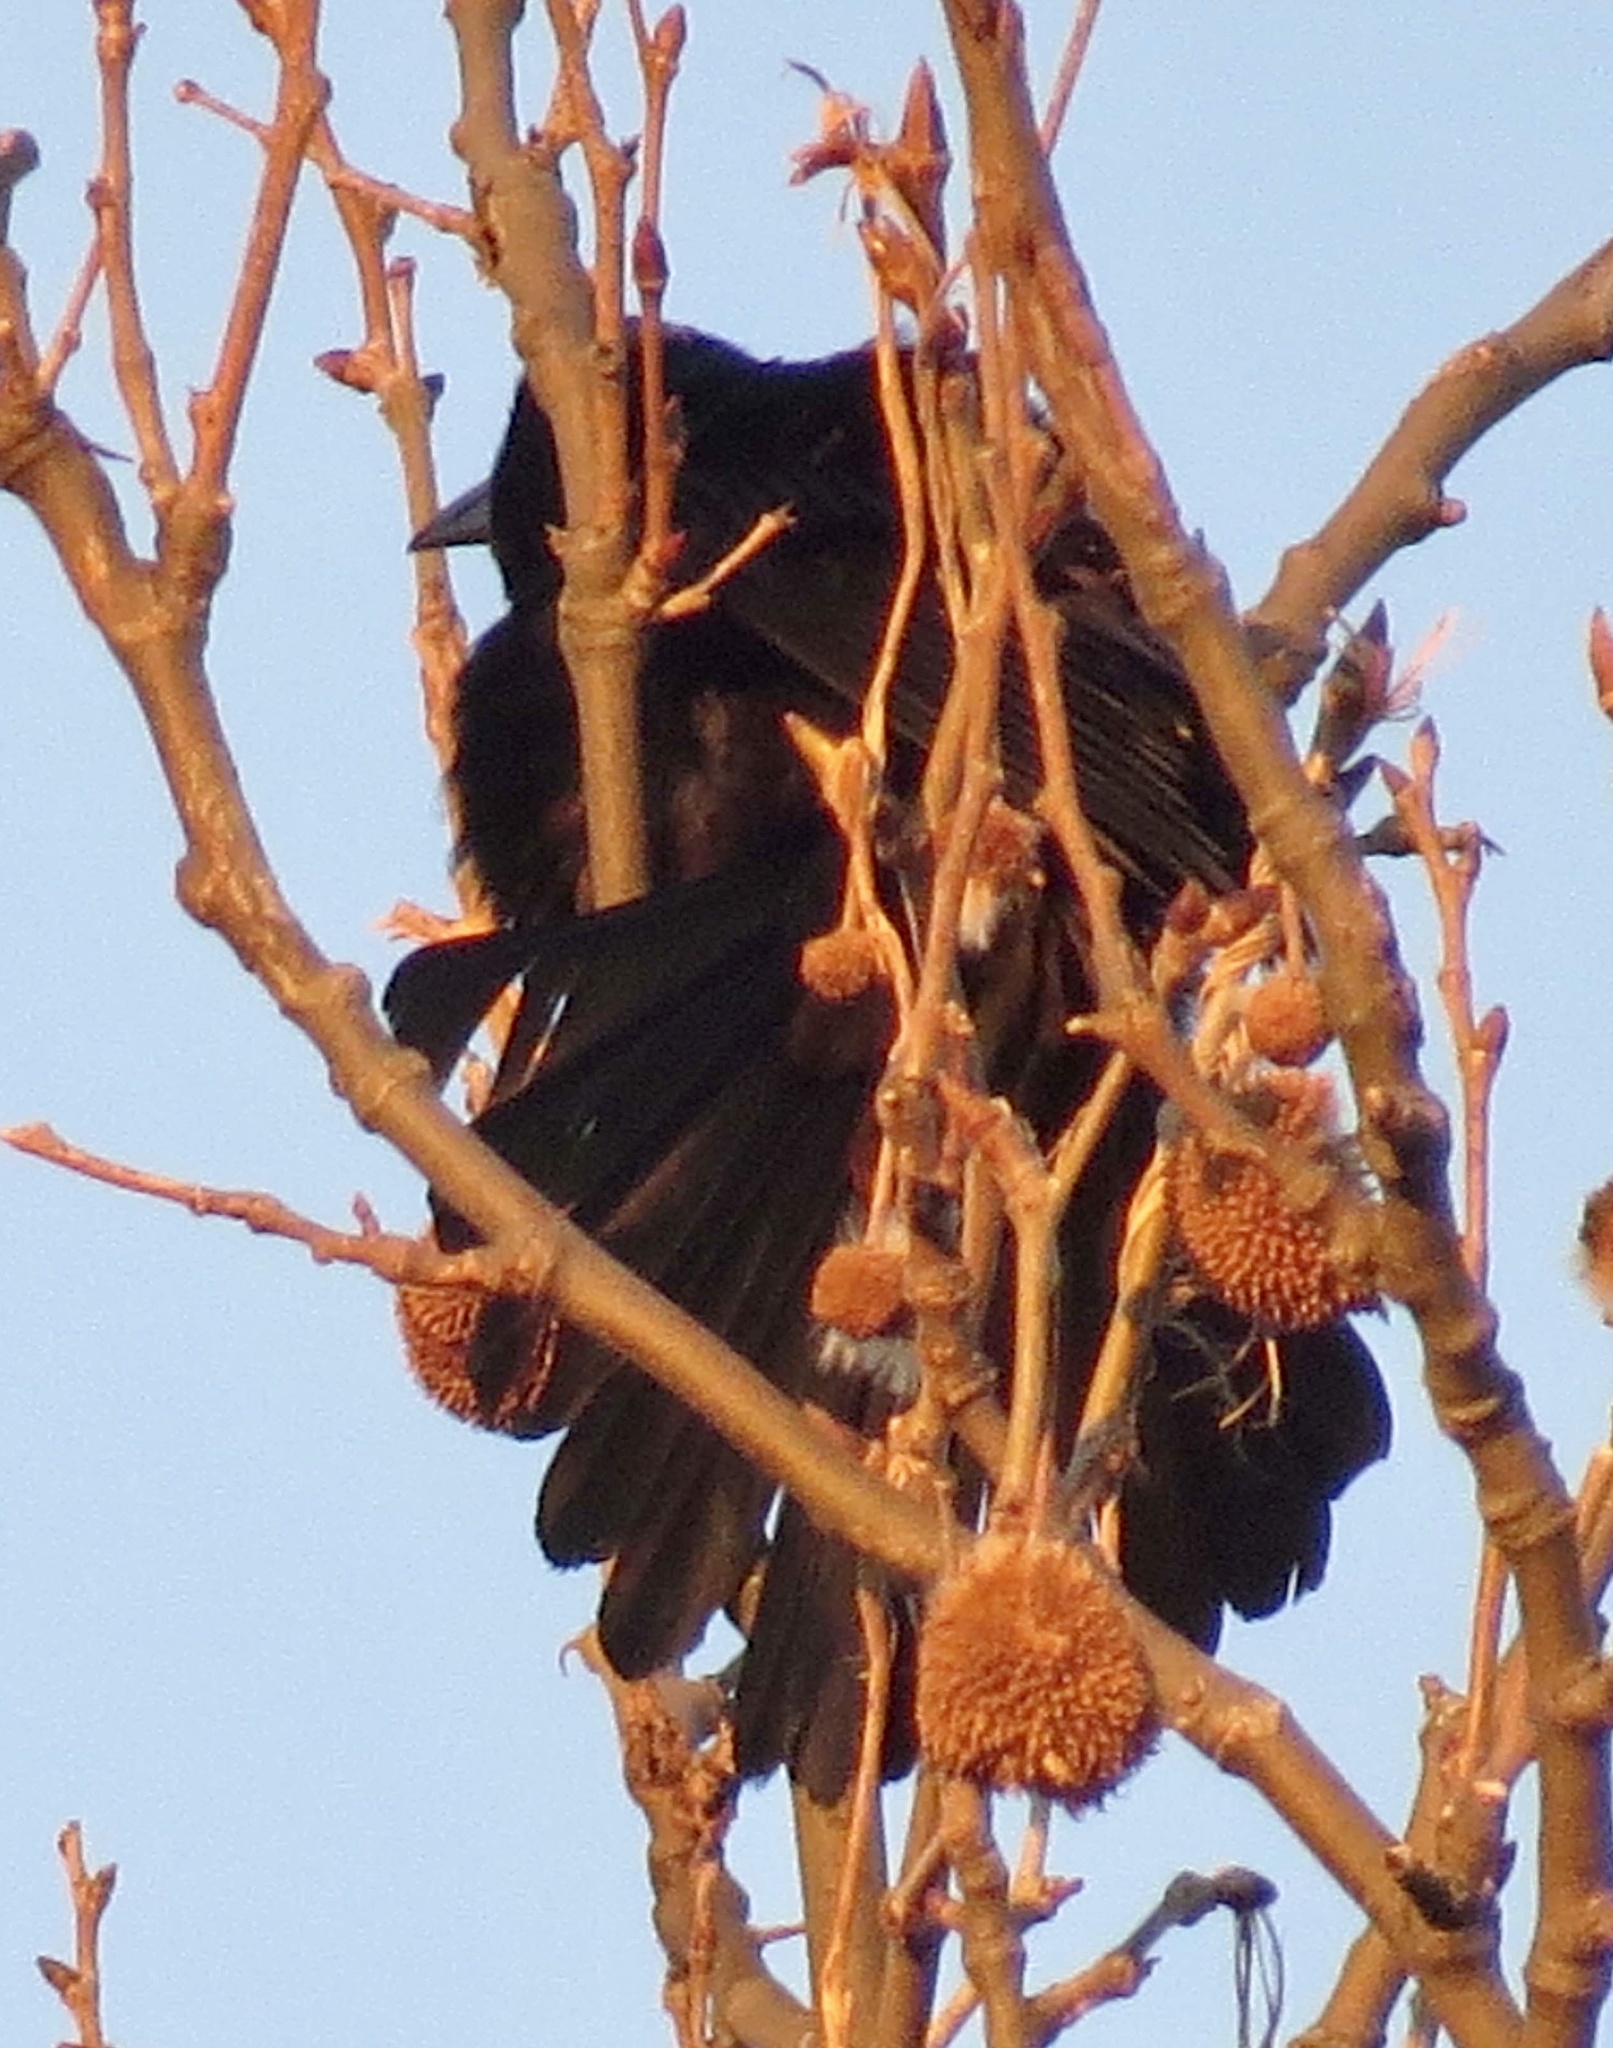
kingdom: Animalia
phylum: Chordata
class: Aves
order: Passeriformes
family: Icteridae
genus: Quiscalus
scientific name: Quiscalus quiscula
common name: Common grackle
